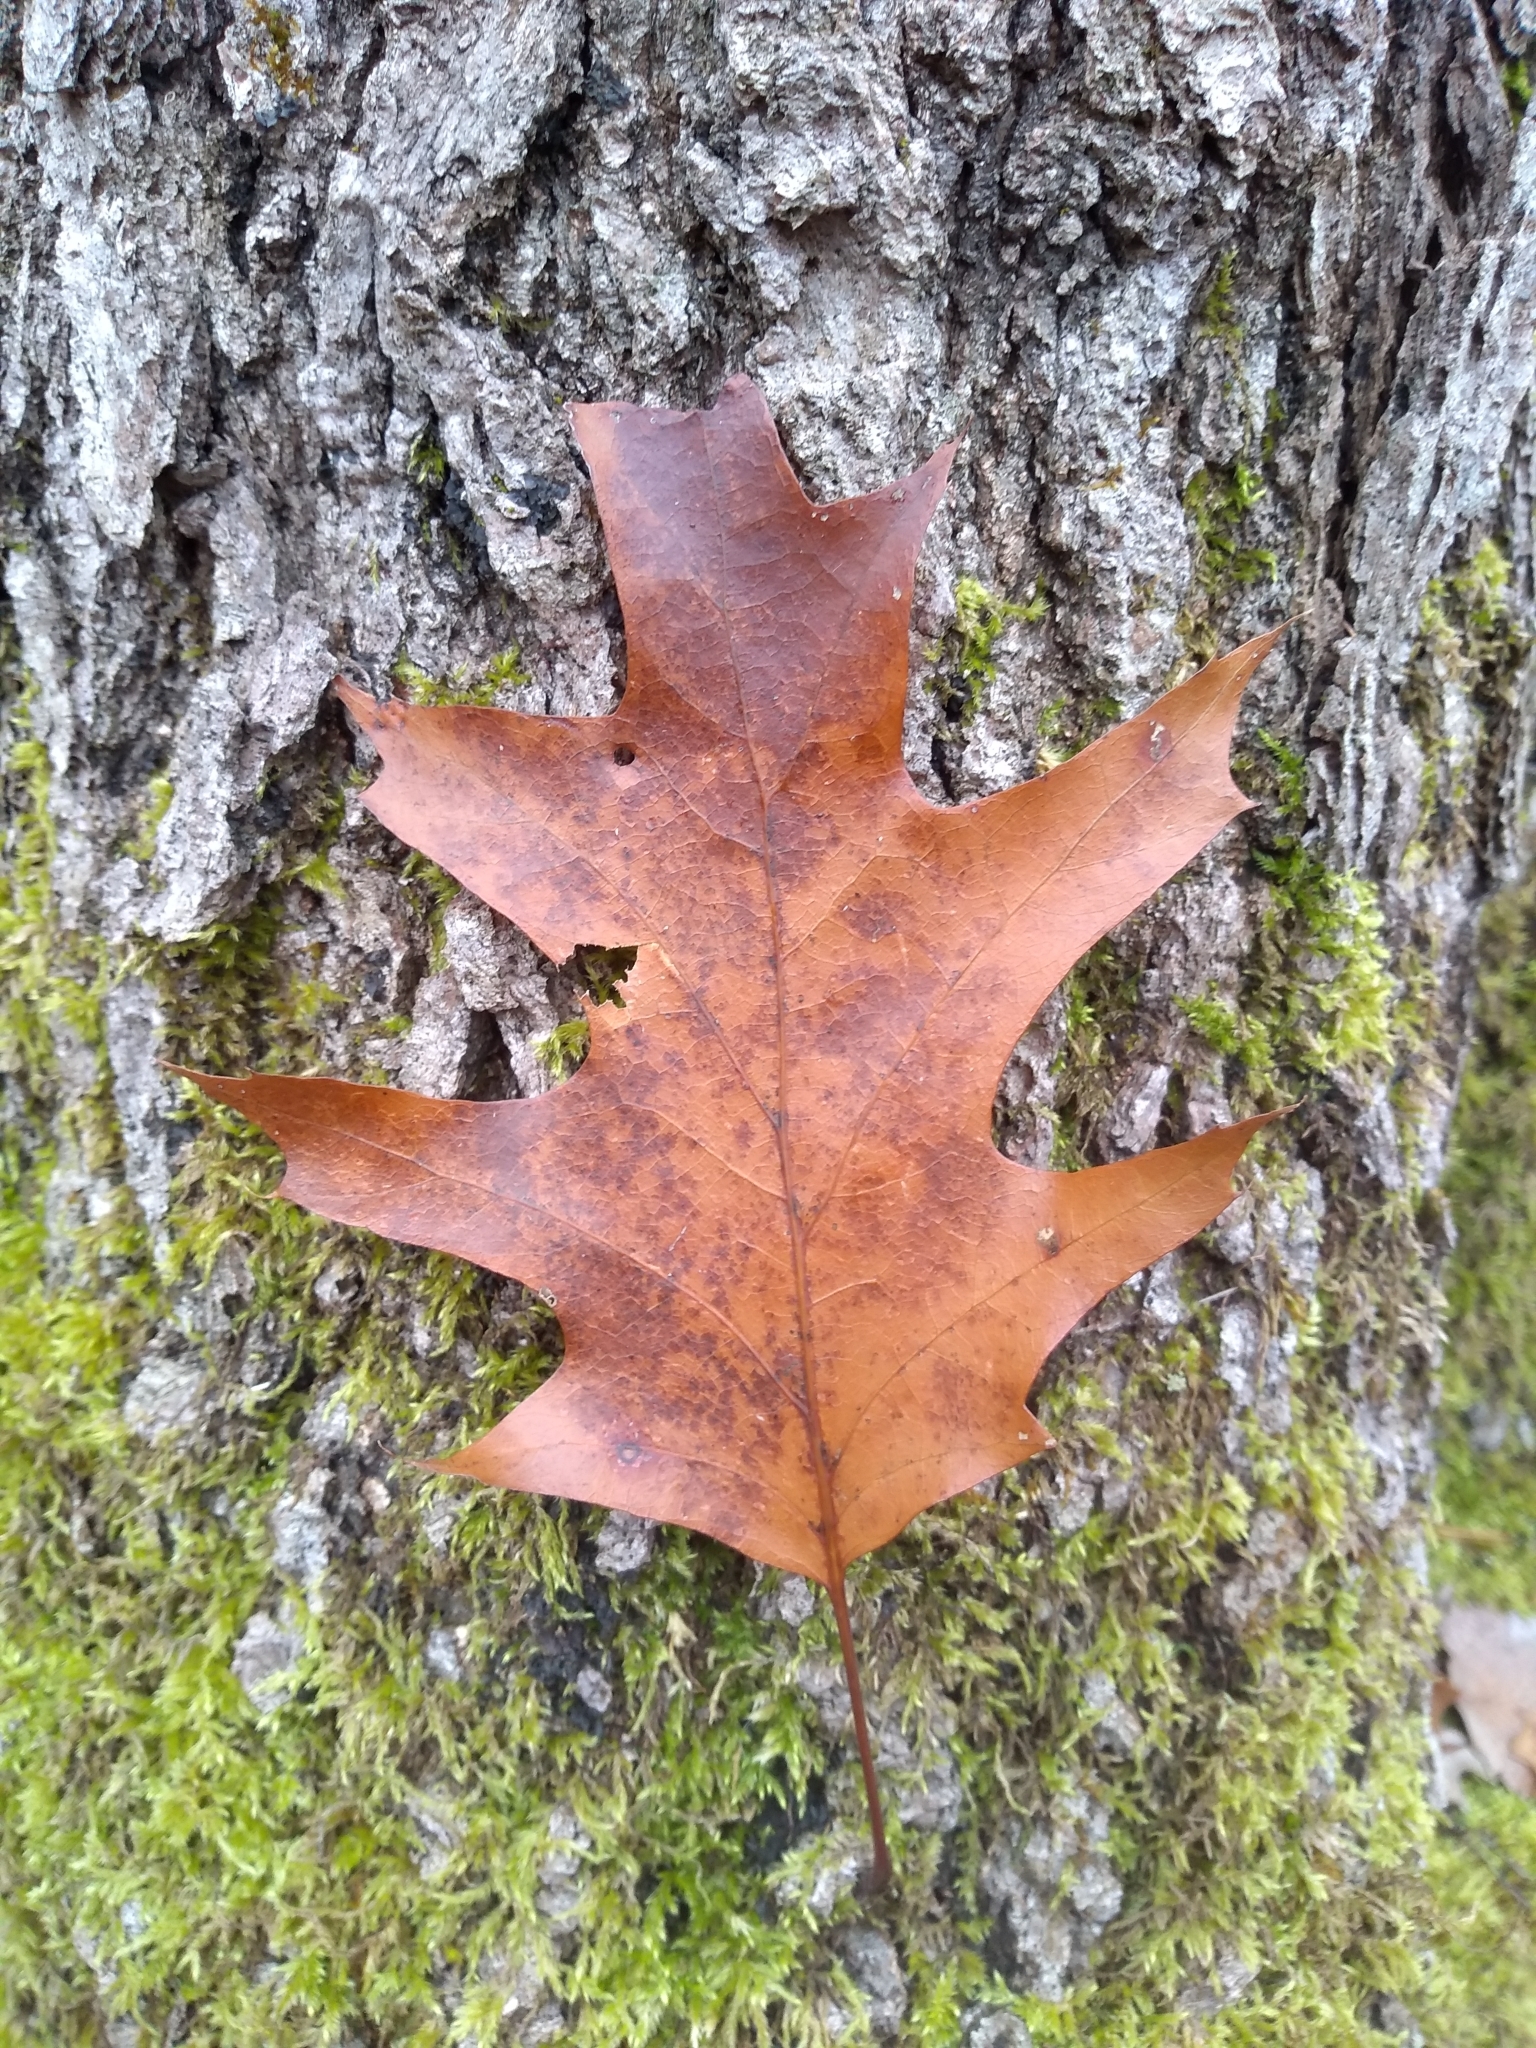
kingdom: Plantae
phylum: Tracheophyta
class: Magnoliopsida
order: Fagales
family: Fagaceae
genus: Quercus
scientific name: Quercus rubra
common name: Red oak
